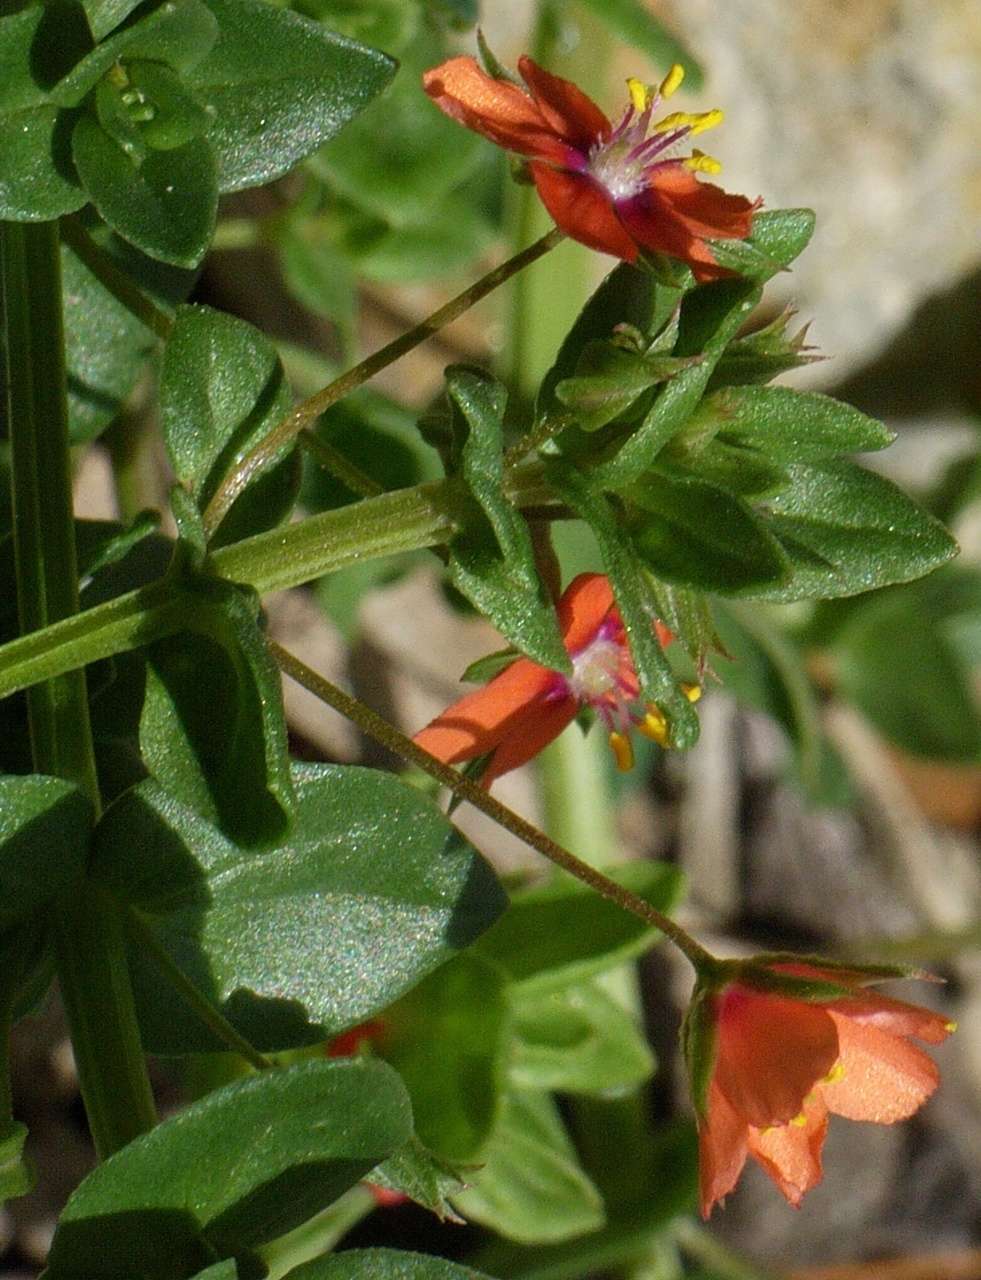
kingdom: Plantae
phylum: Tracheophyta
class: Magnoliopsida
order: Ericales
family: Primulaceae
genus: Lysimachia
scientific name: Lysimachia arvensis
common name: Scarlet pimpernel
